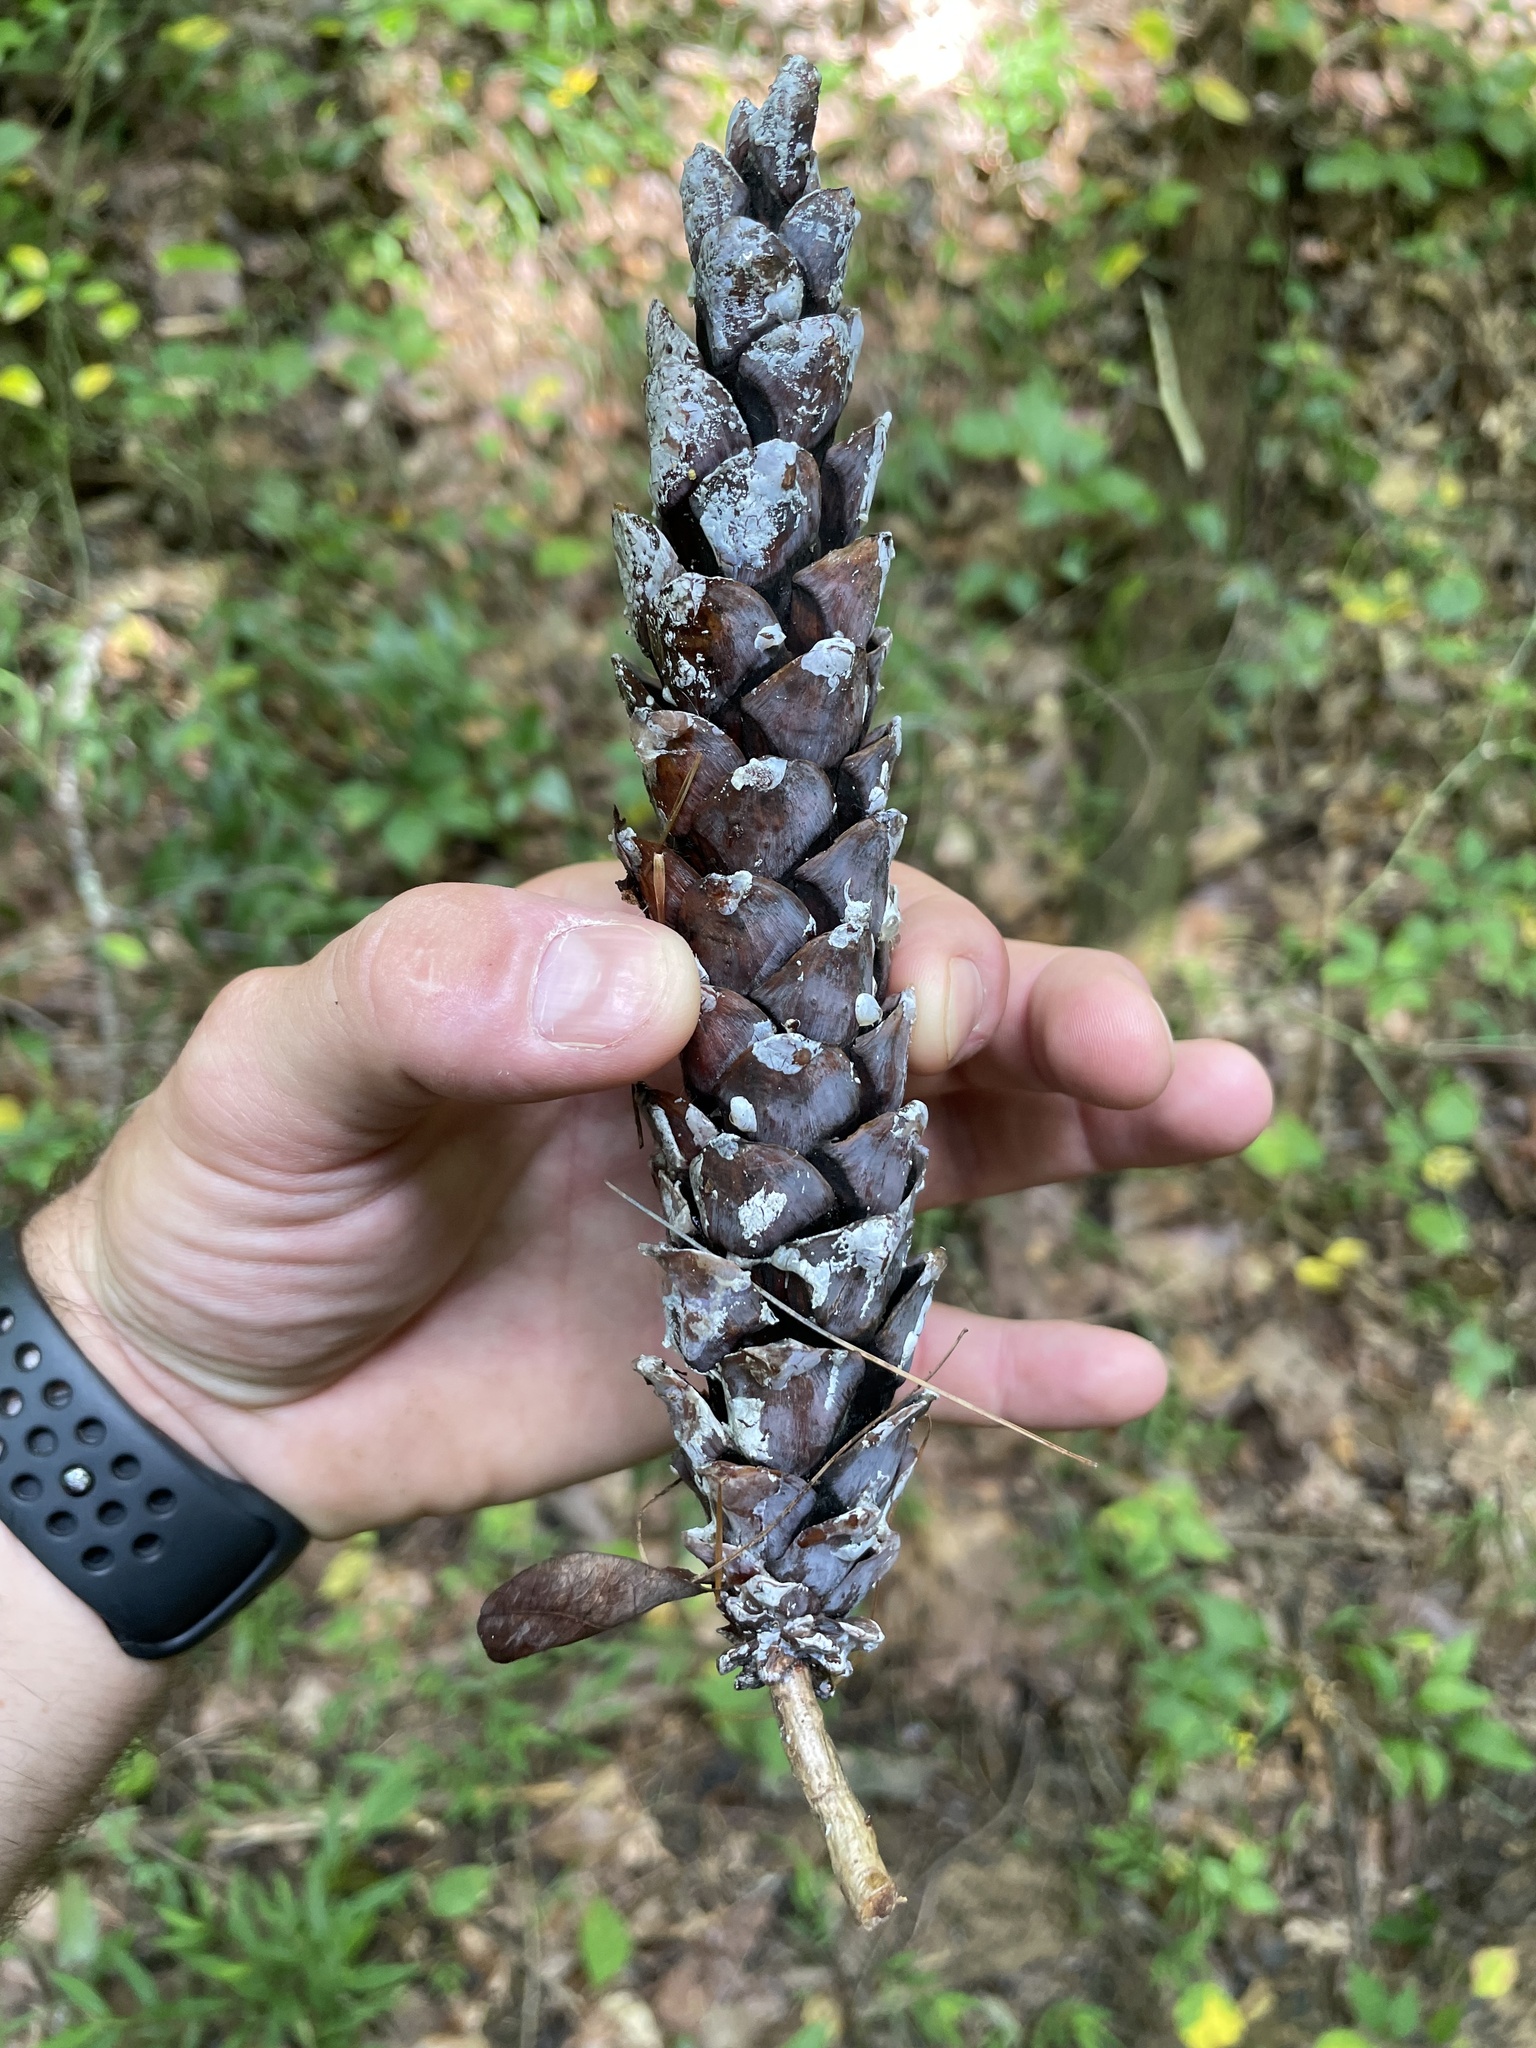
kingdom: Plantae
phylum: Tracheophyta
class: Pinopsida
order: Pinales
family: Pinaceae
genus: Pinus
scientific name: Pinus strobus
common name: Weymouth pine
